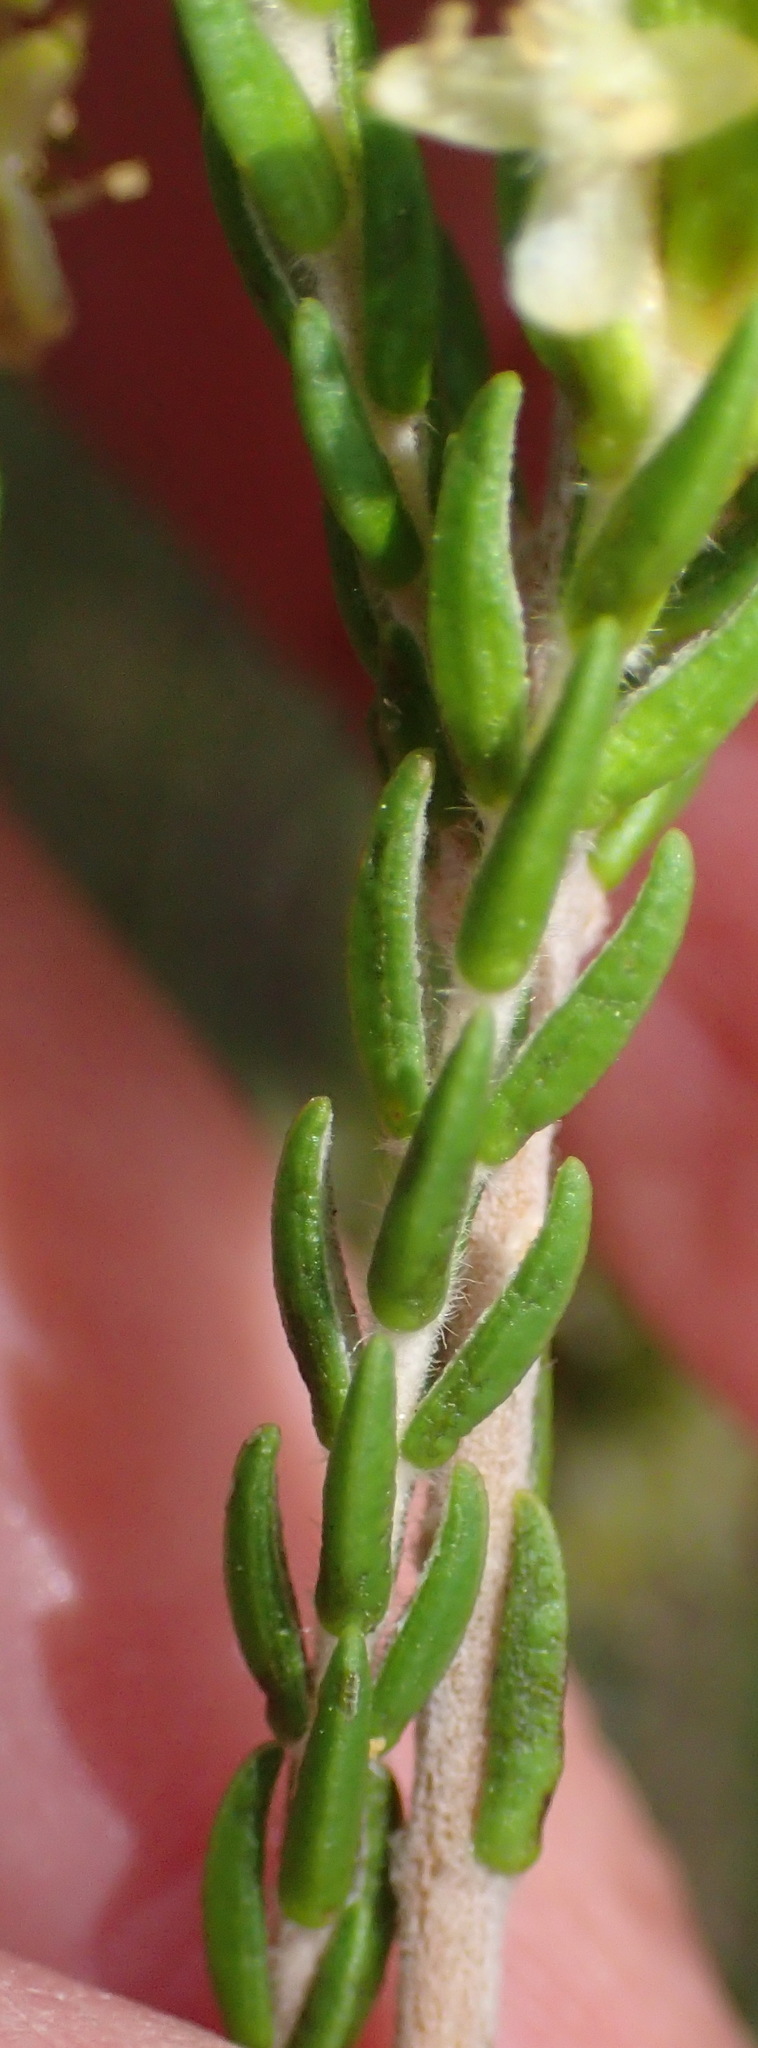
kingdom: Plantae
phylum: Tracheophyta
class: Magnoliopsida
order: Malvales
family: Thymelaeaceae
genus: Passerina
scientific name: Passerina corymbosa
